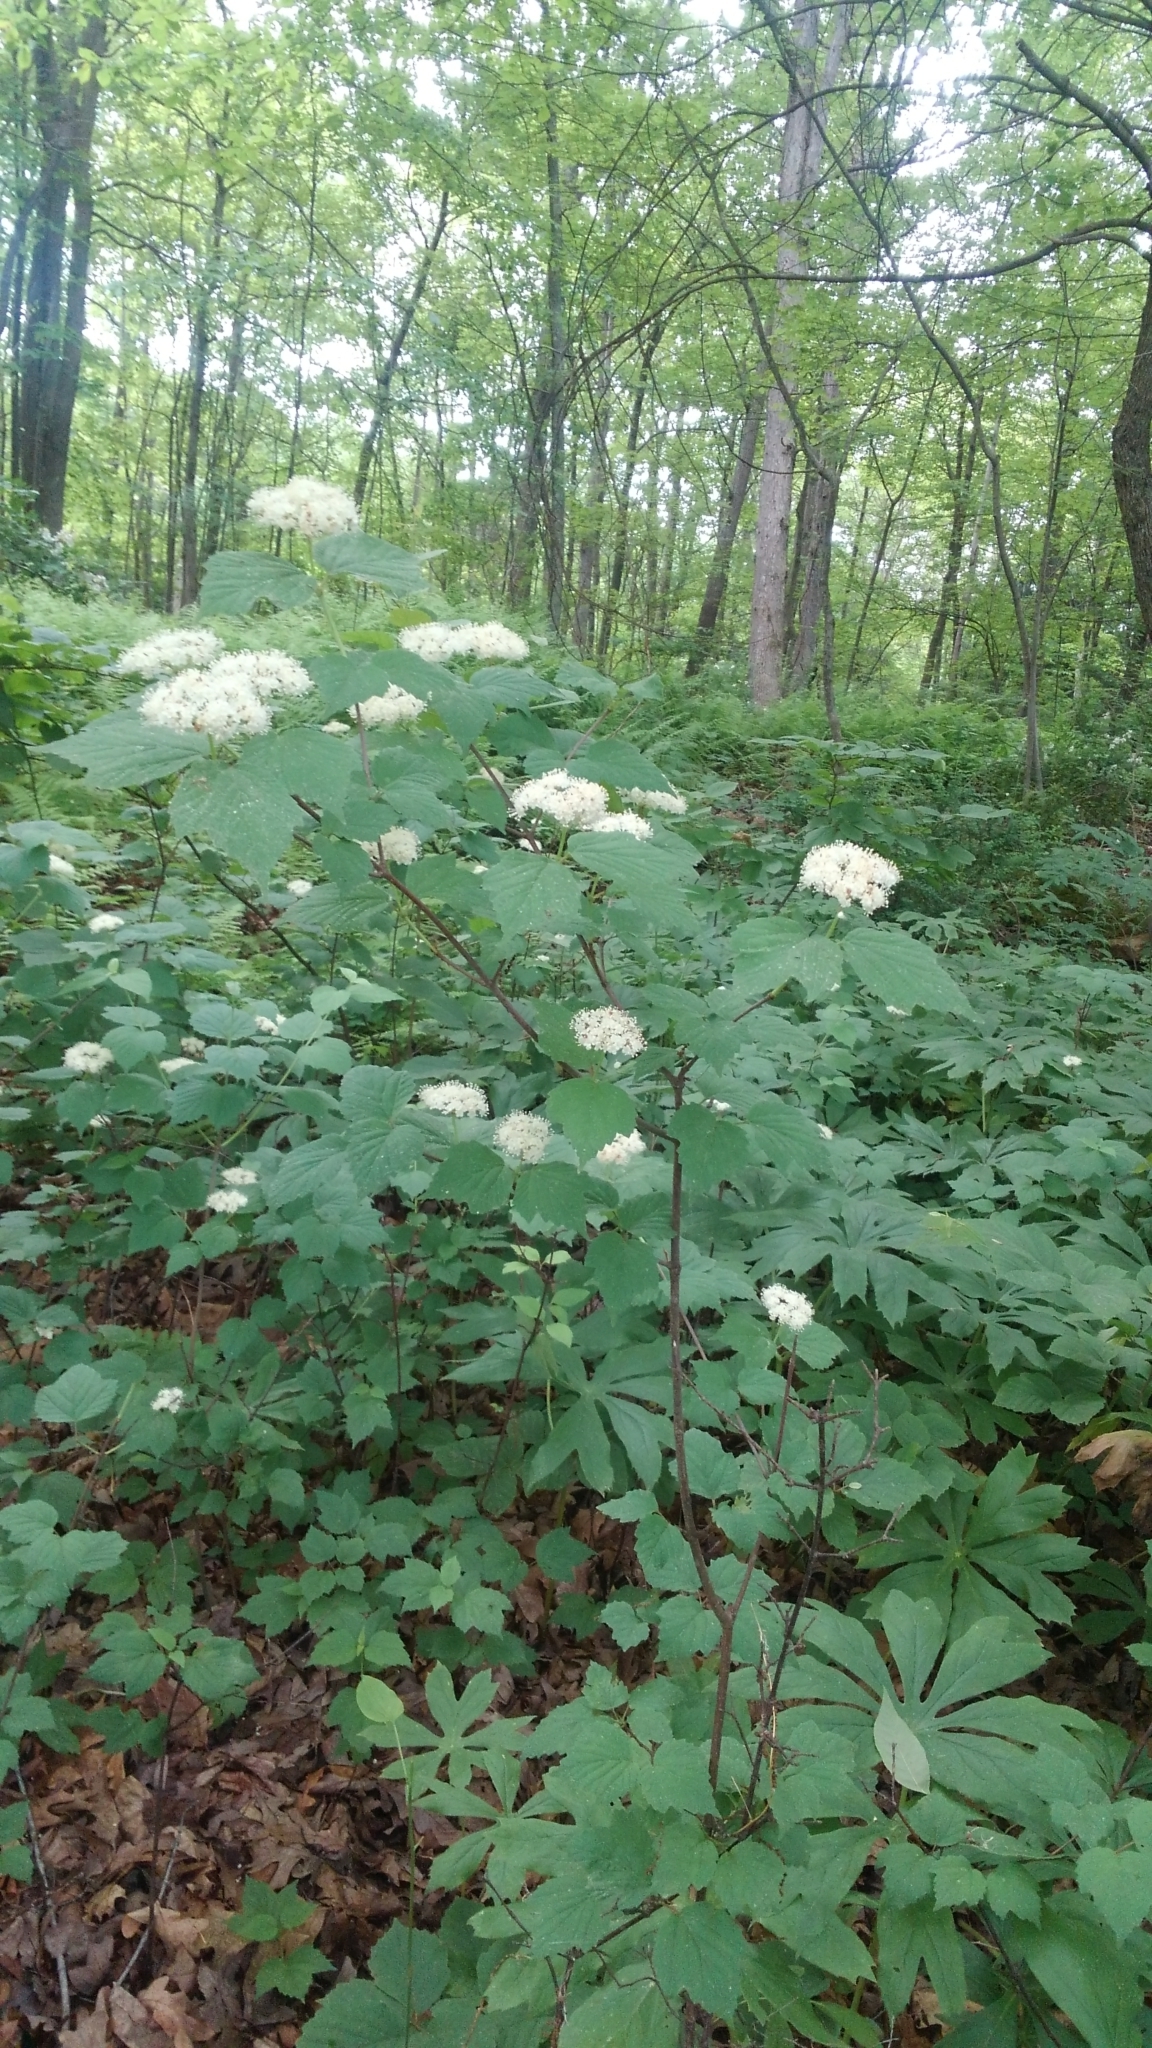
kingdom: Plantae
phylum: Tracheophyta
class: Magnoliopsida
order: Dipsacales
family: Viburnaceae
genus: Viburnum
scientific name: Viburnum acerifolium
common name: Dockmackie
